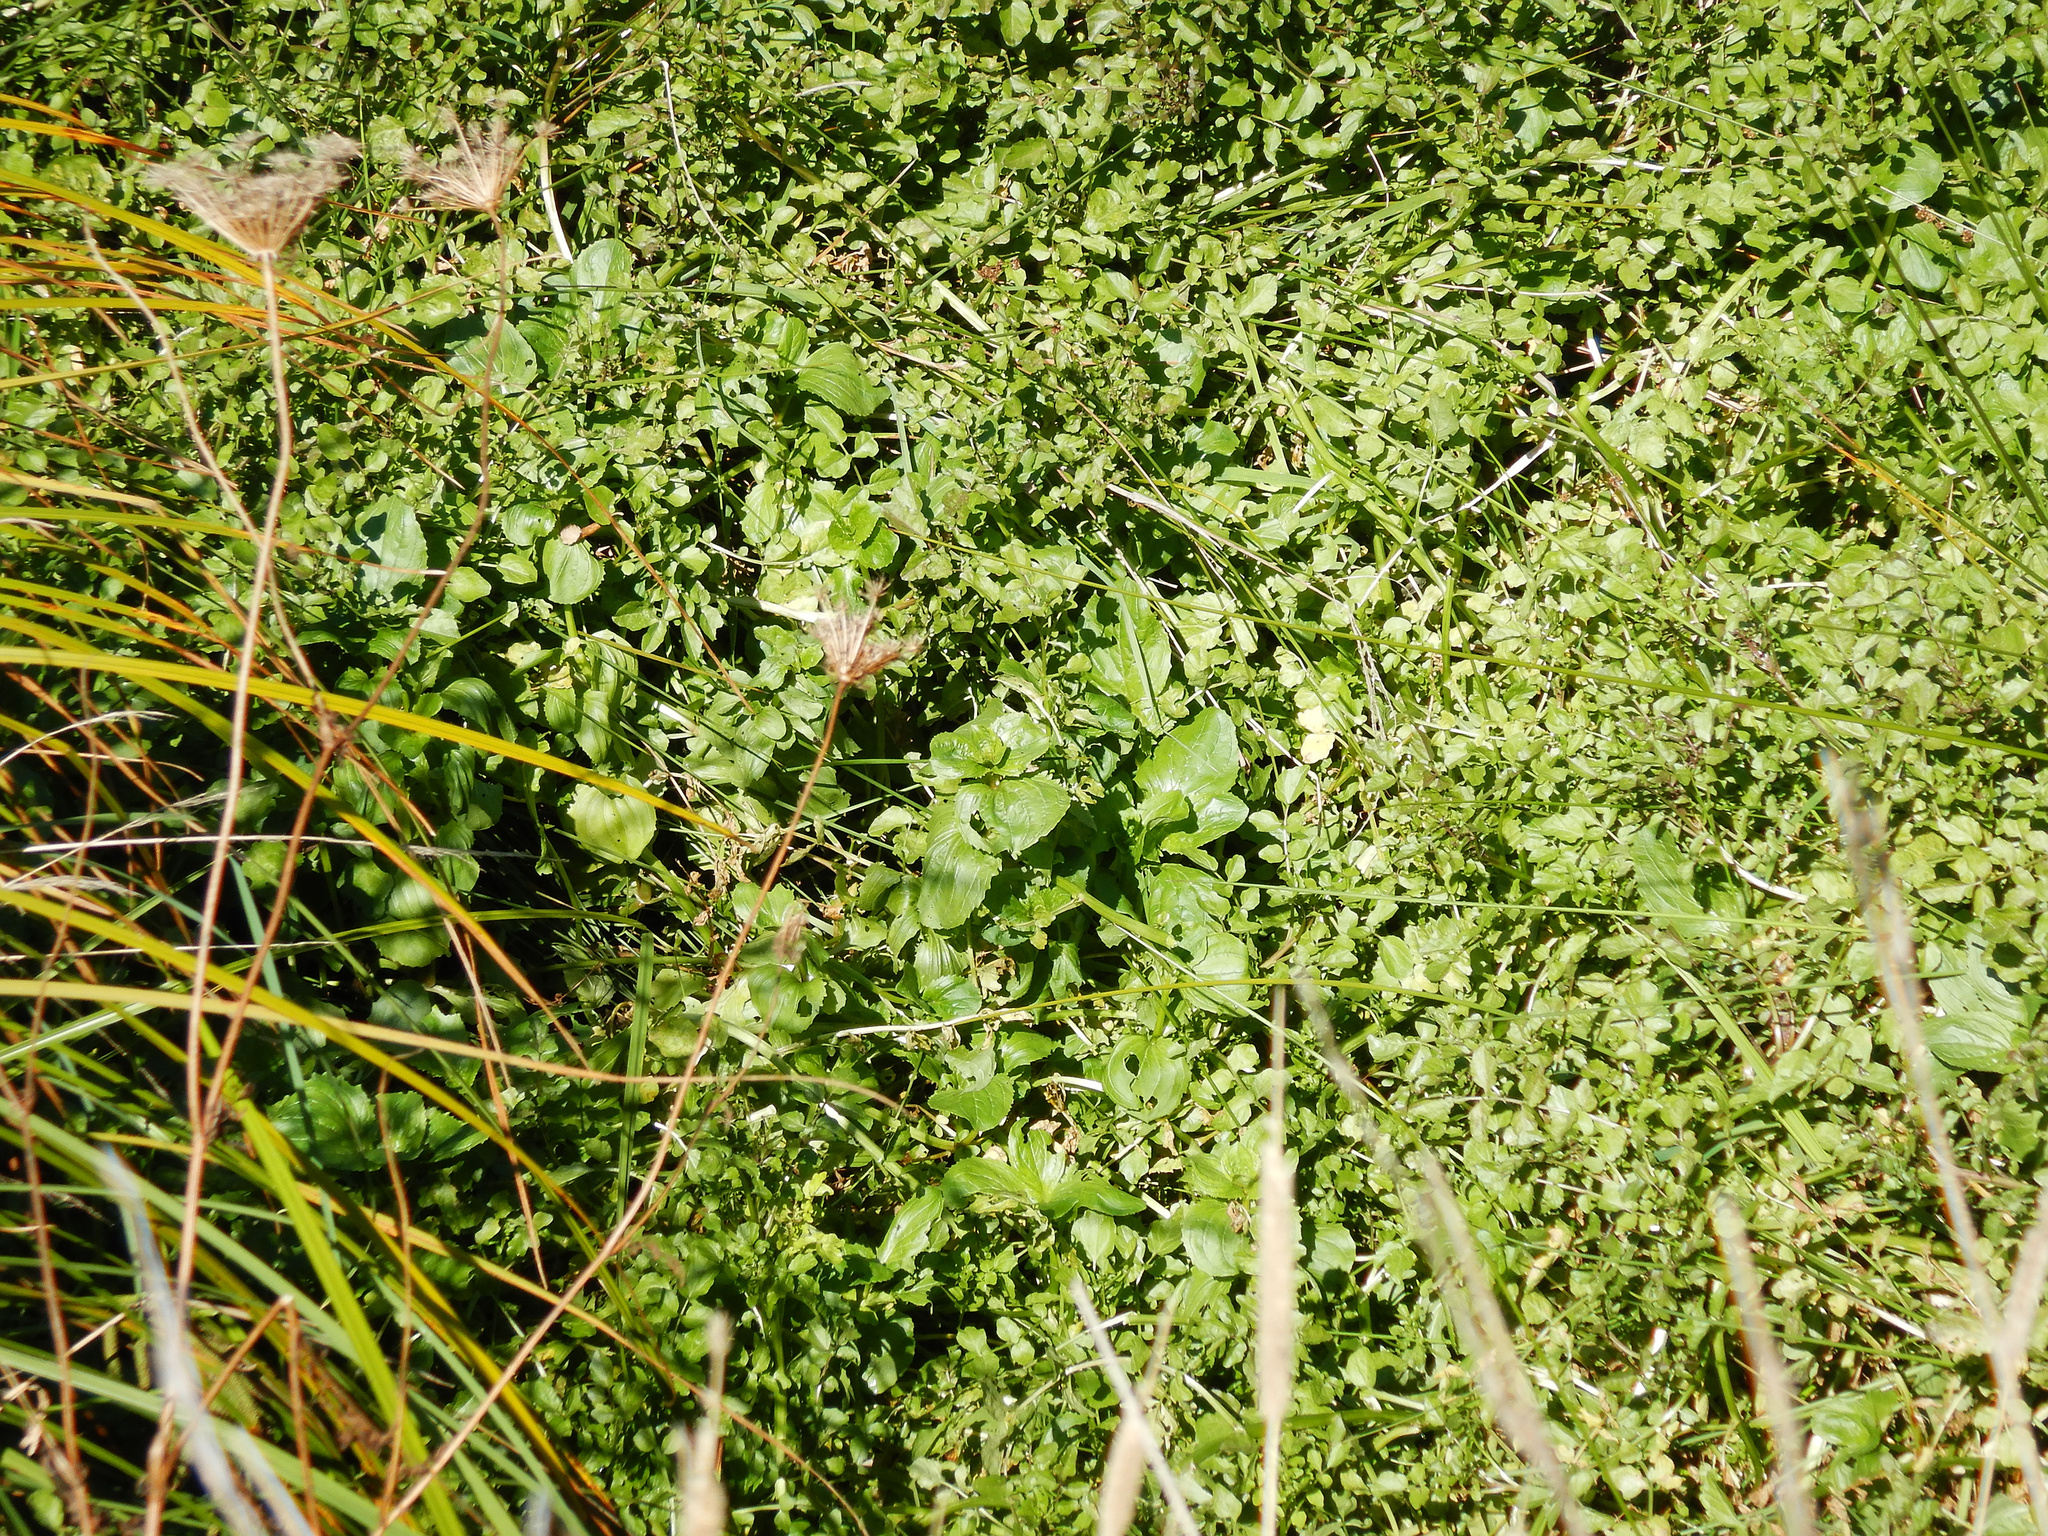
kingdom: Plantae
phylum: Tracheophyta
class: Magnoliopsida
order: Lamiales
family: Phrymaceae
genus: Erythranthe
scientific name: Erythranthe guttata
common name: Monkeyflower
